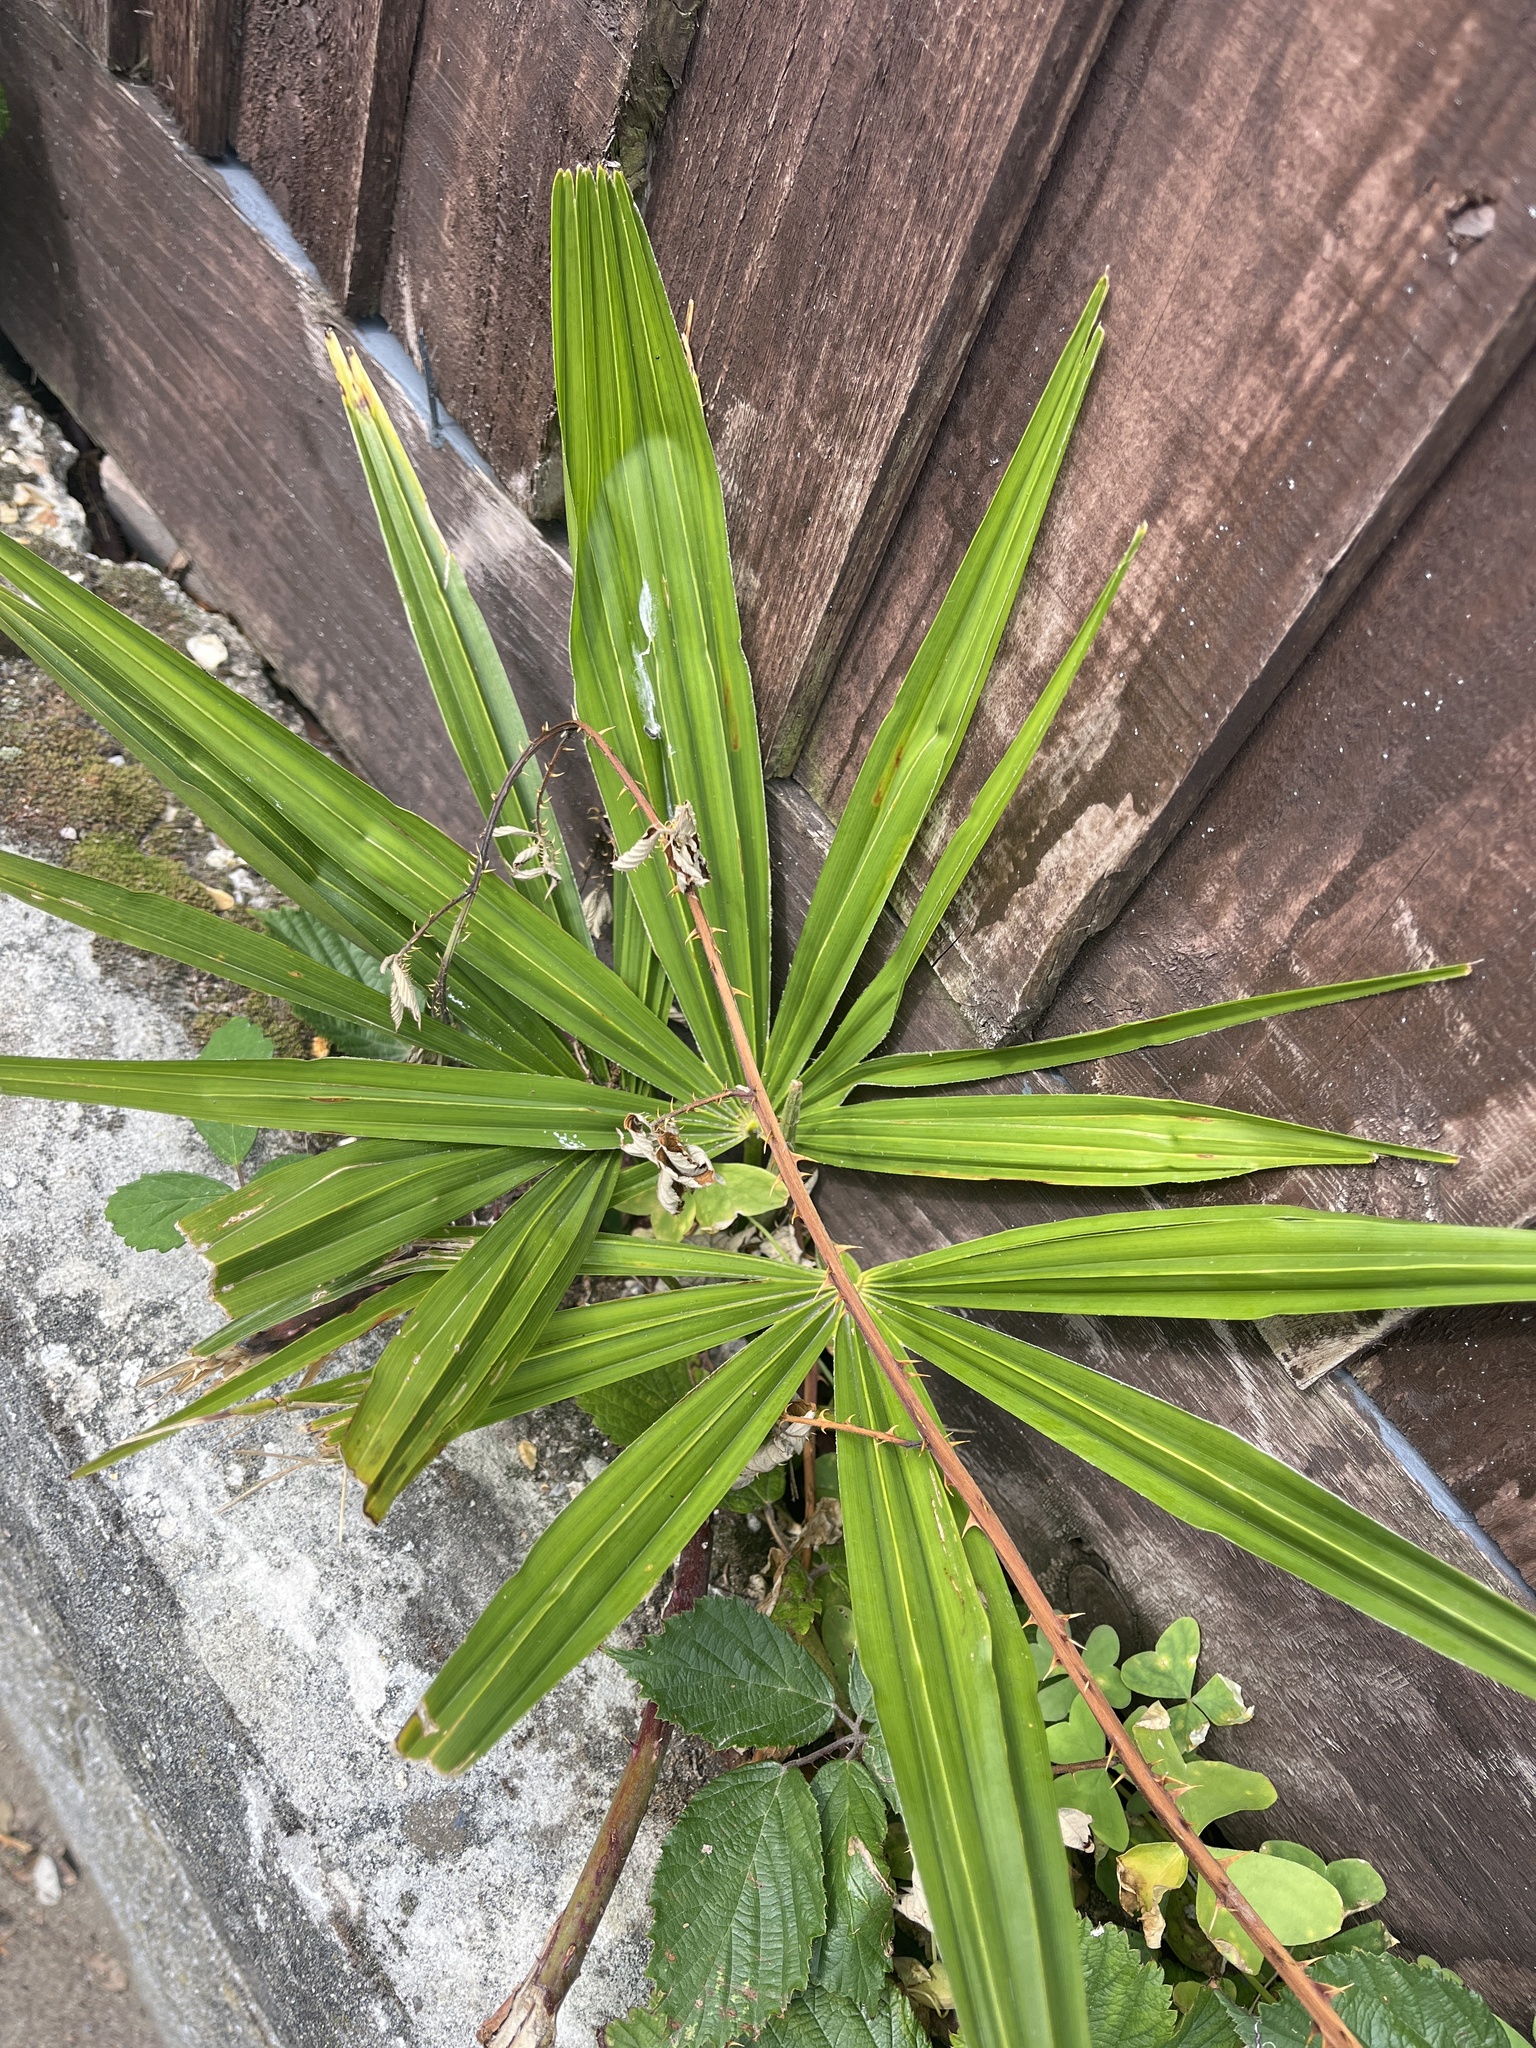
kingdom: Plantae
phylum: Tracheophyta
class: Liliopsida
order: Arecales
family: Arecaceae
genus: Trachycarpus
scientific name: Trachycarpus fortunei
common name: Chusan palm
